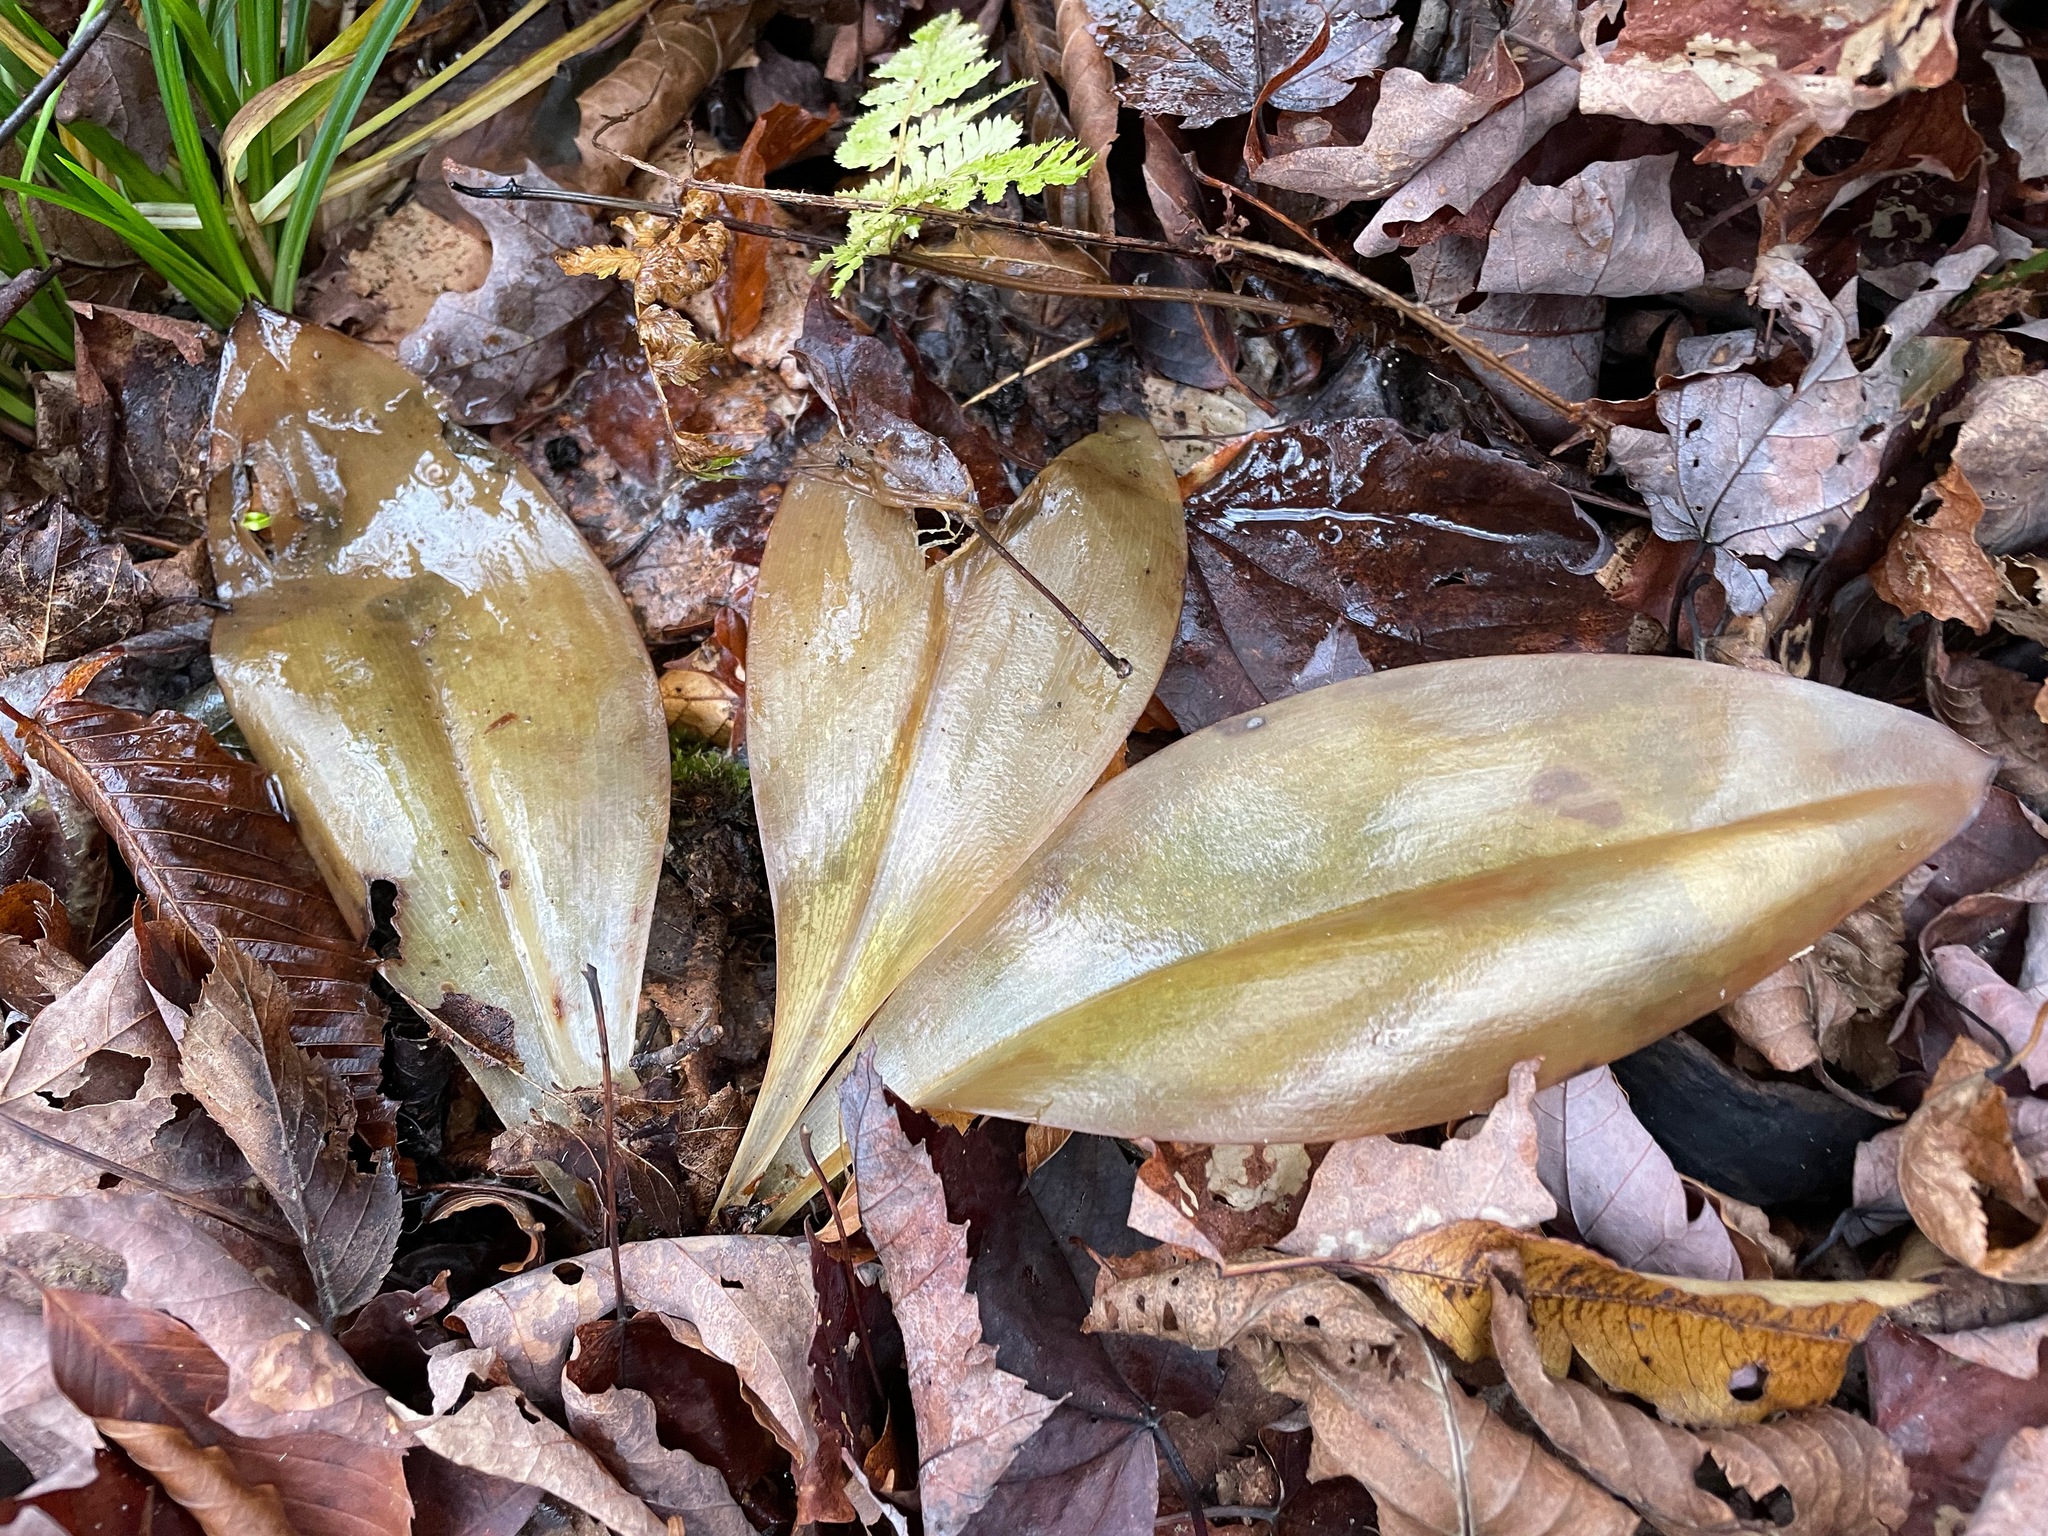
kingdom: Plantae
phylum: Tracheophyta
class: Liliopsida
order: Liliales
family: Liliaceae
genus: Clintonia
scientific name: Clintonia borealis
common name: Yellow clintonia
